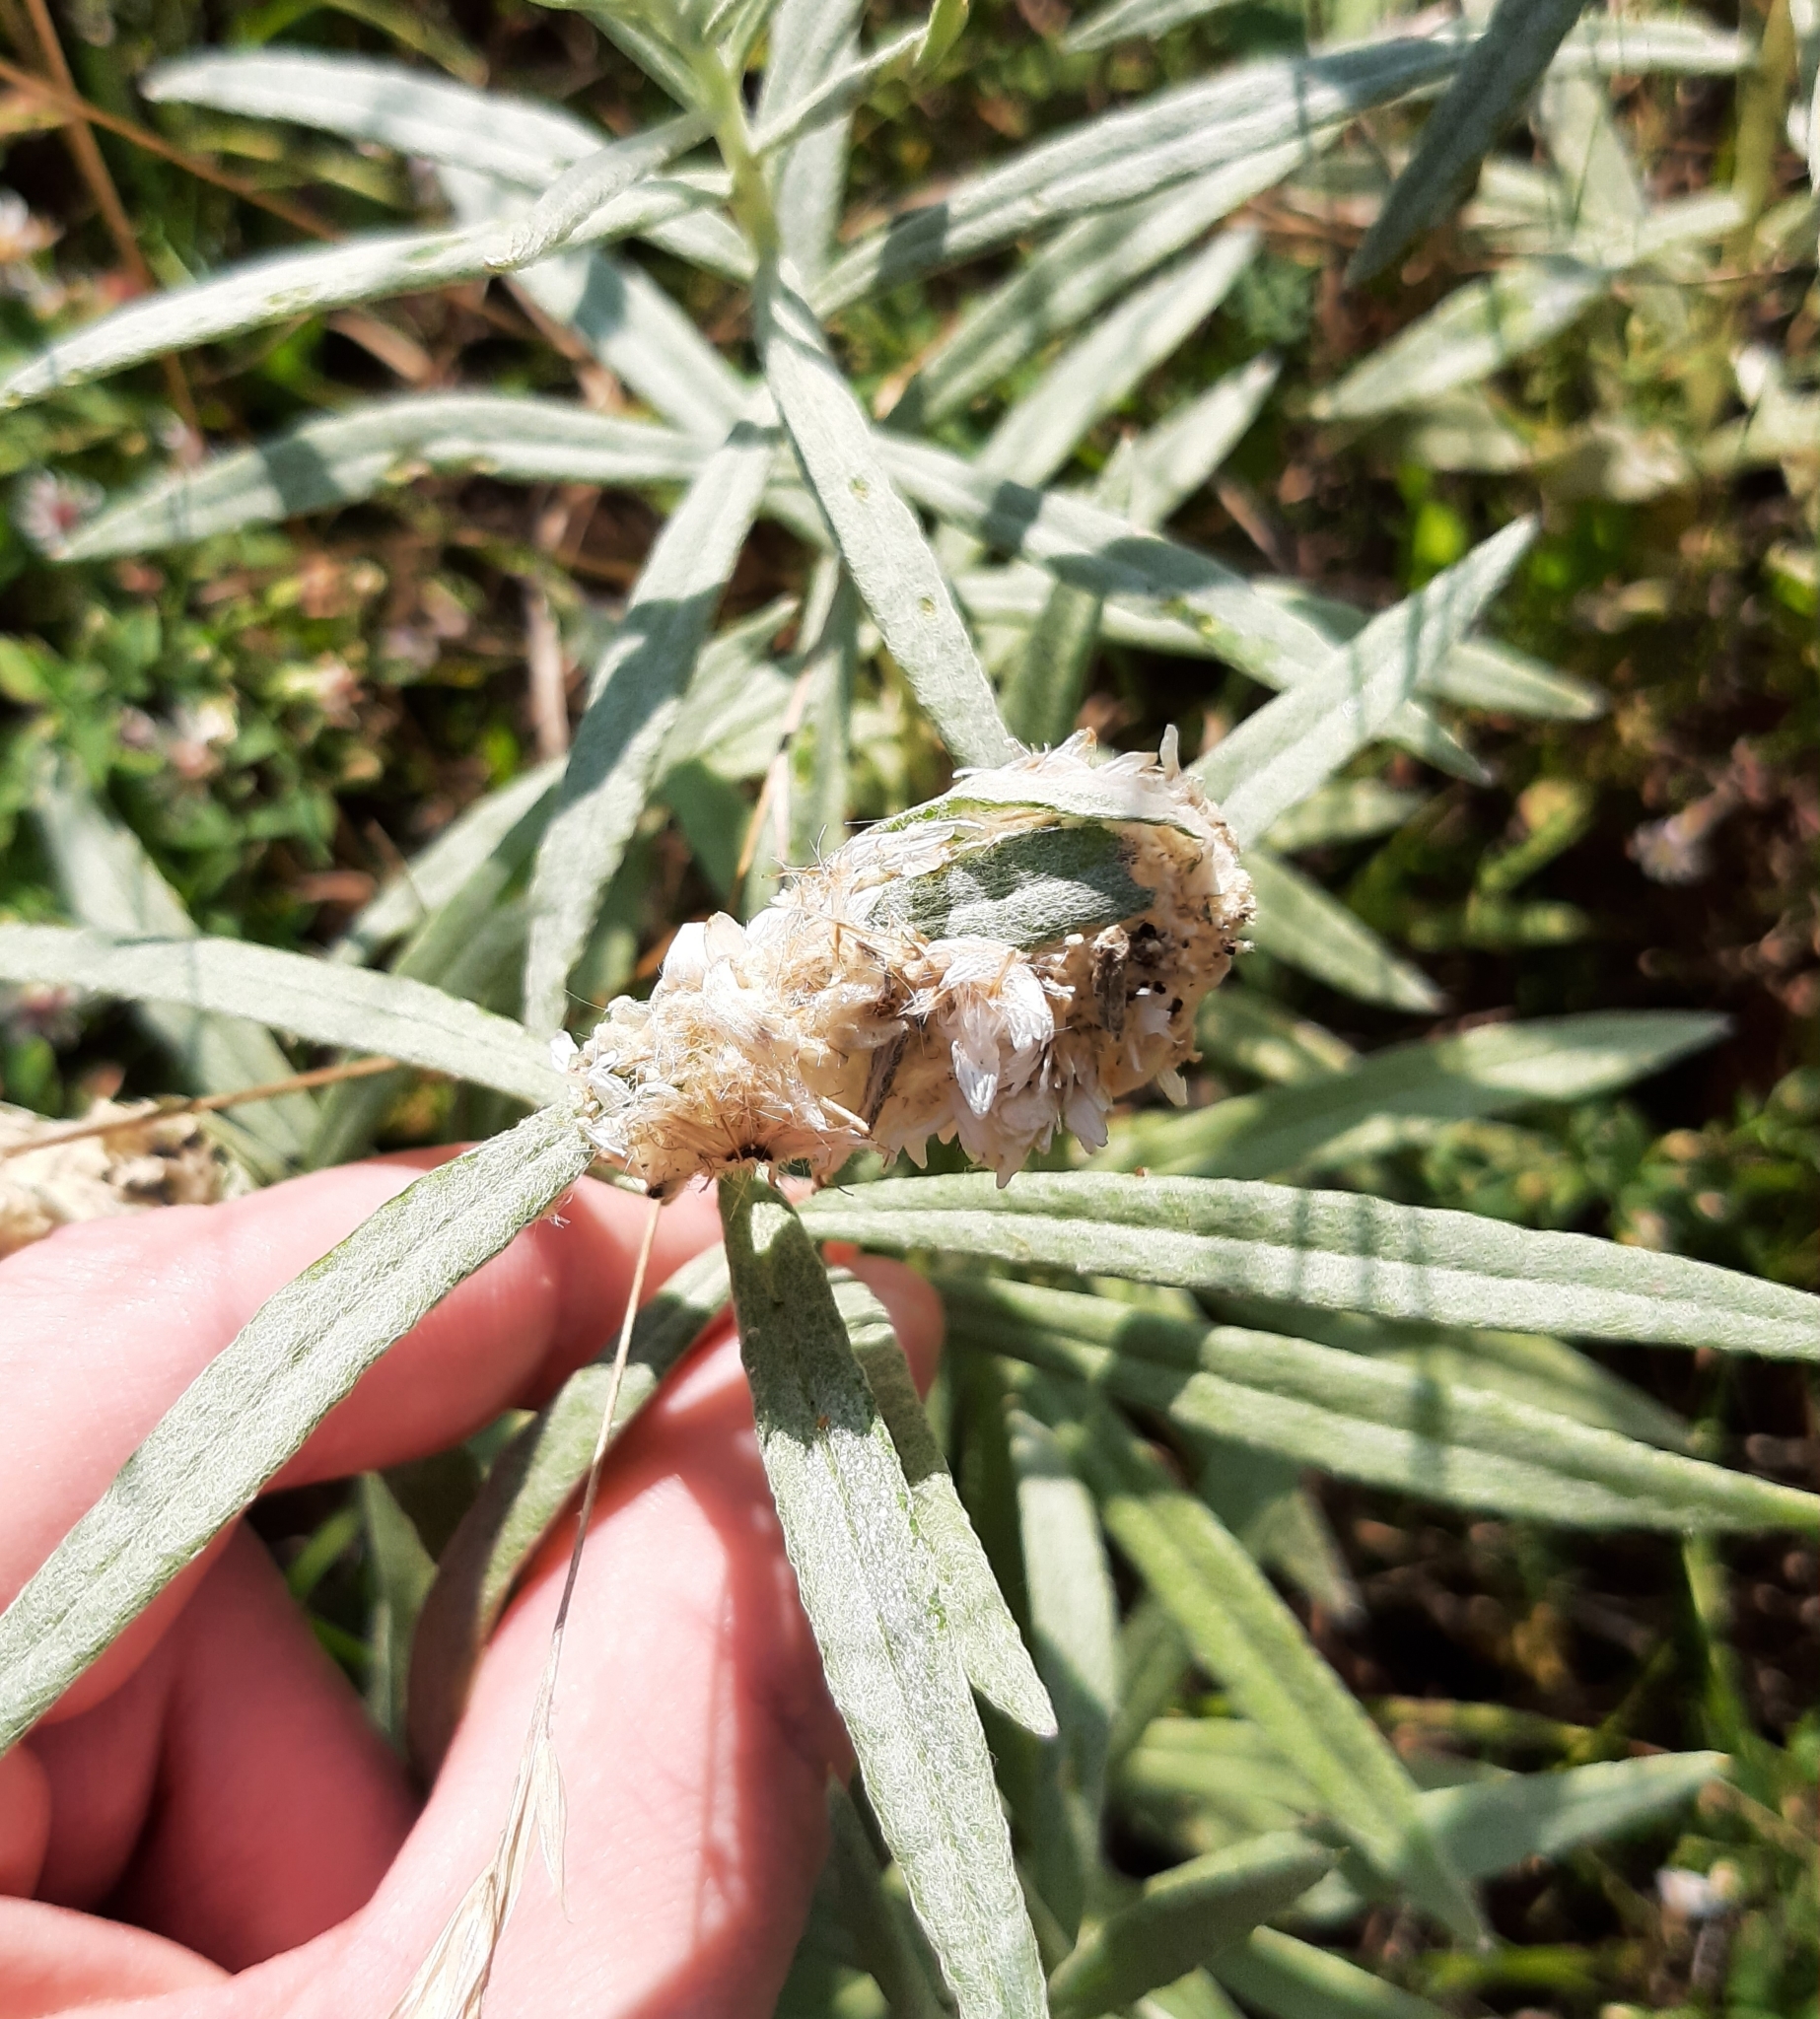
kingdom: Animalia
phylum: Arthropoda
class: Insecta
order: Lepidoptera
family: Nymphalidae
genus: Vanessa
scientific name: Vanessa virginiensis
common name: American lady
